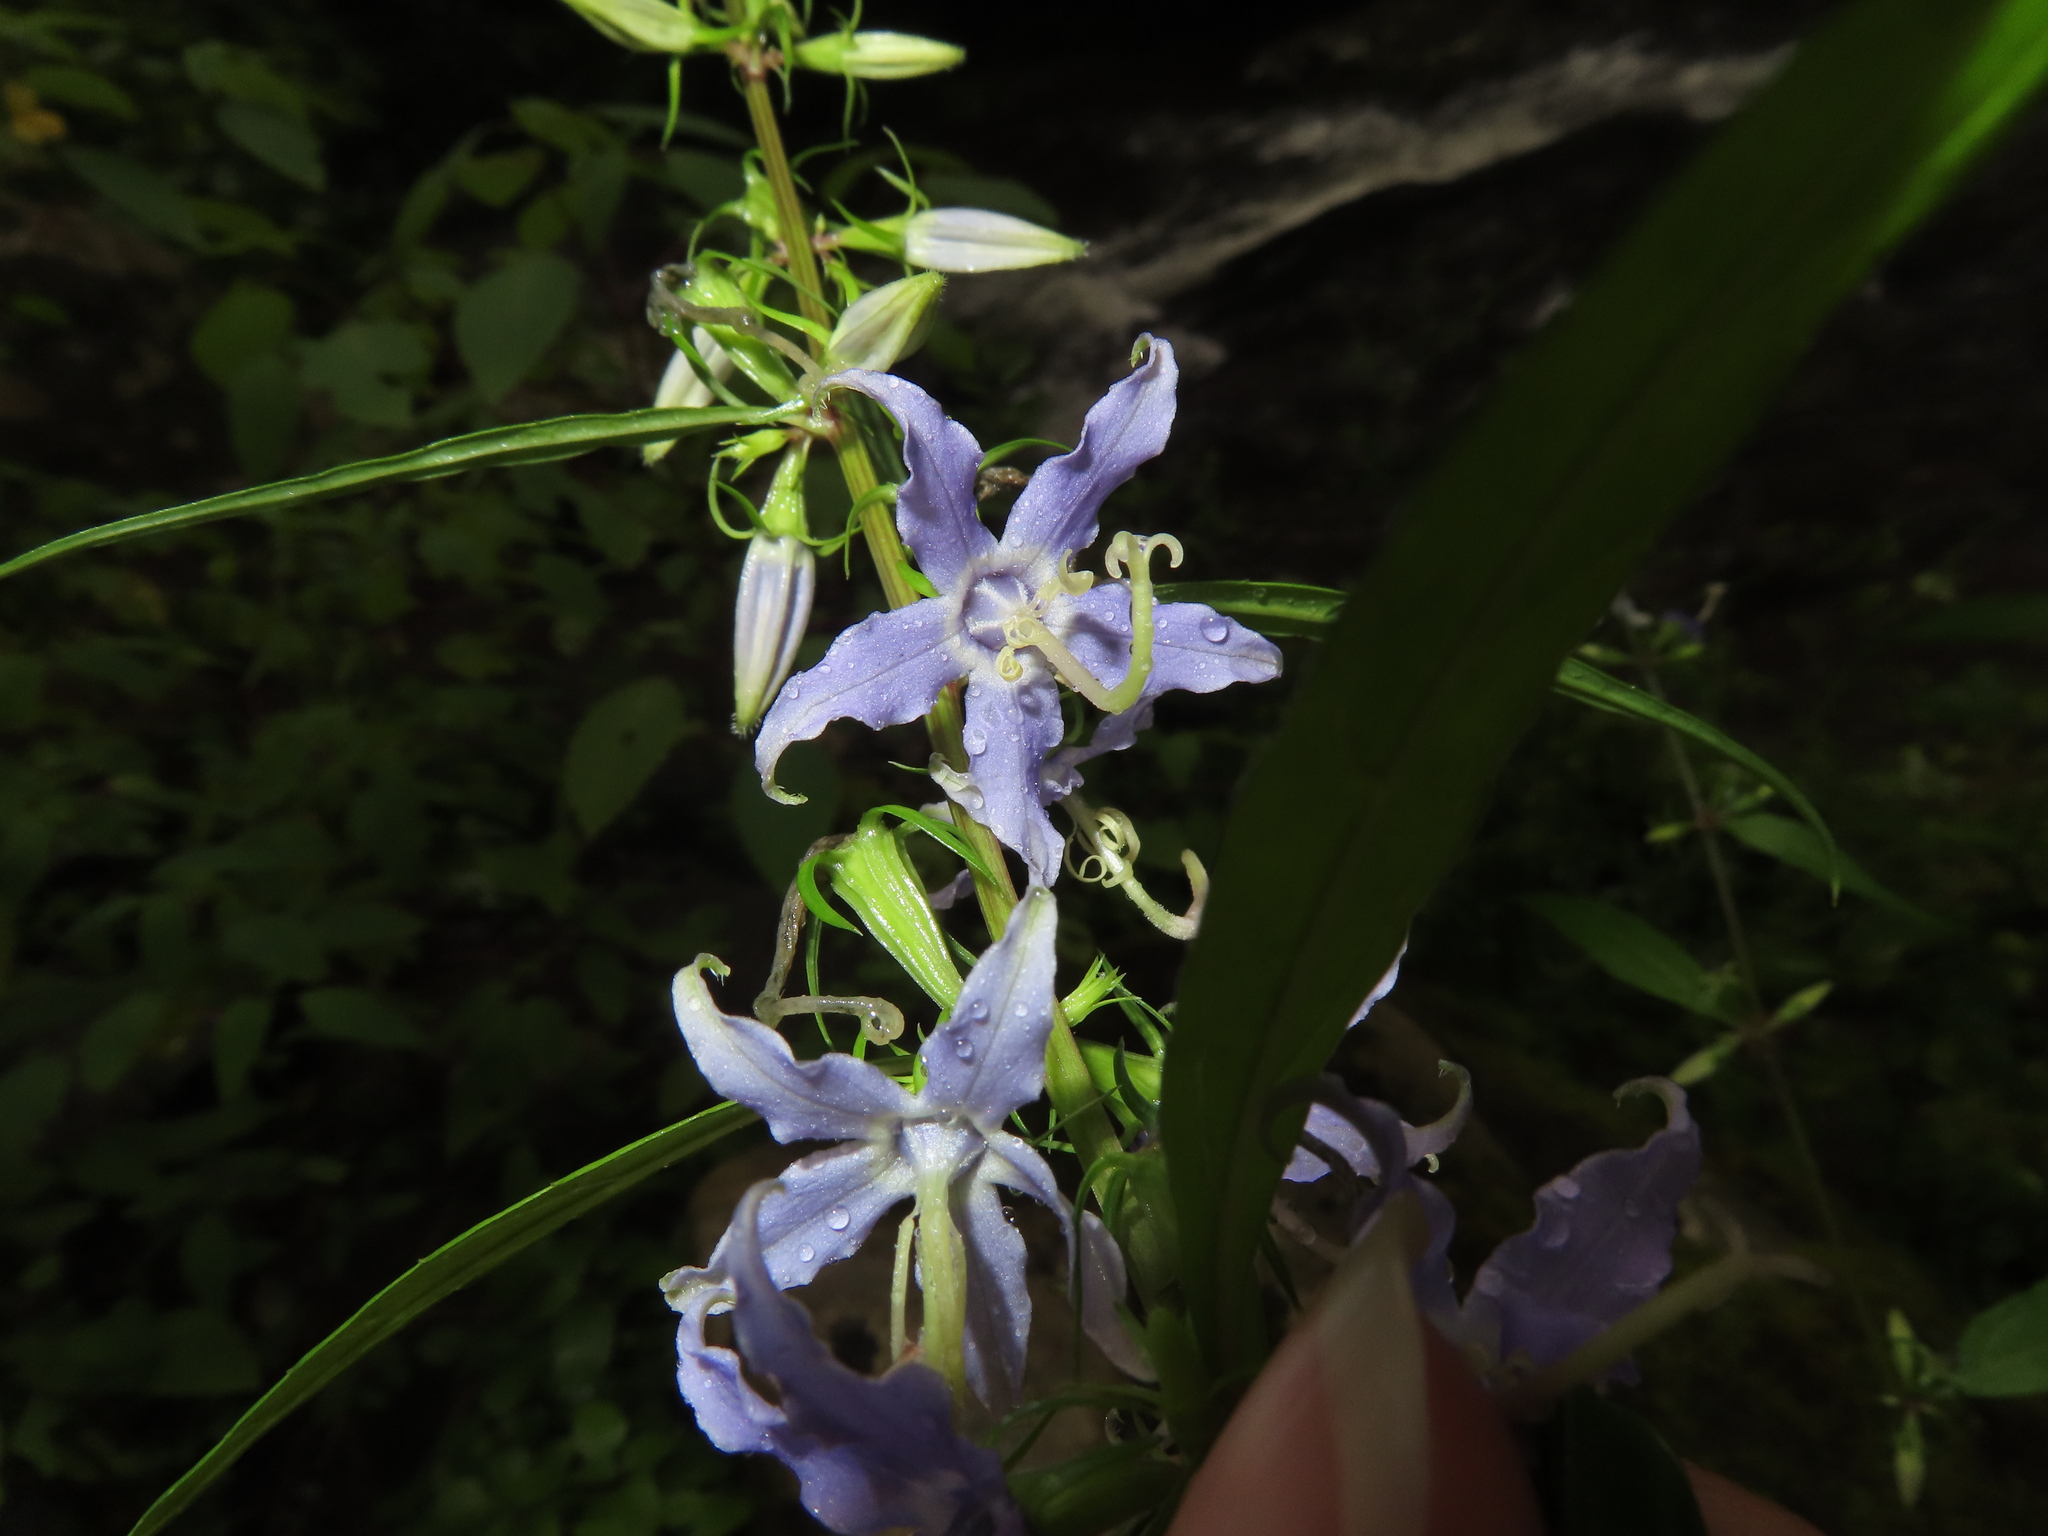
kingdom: Plantae
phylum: Tracheophyta
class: Magnoliopsida
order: Asterales
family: Campanulaceae
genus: Campanulastrum
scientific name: Campanulastrum americanum
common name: American bellflower
